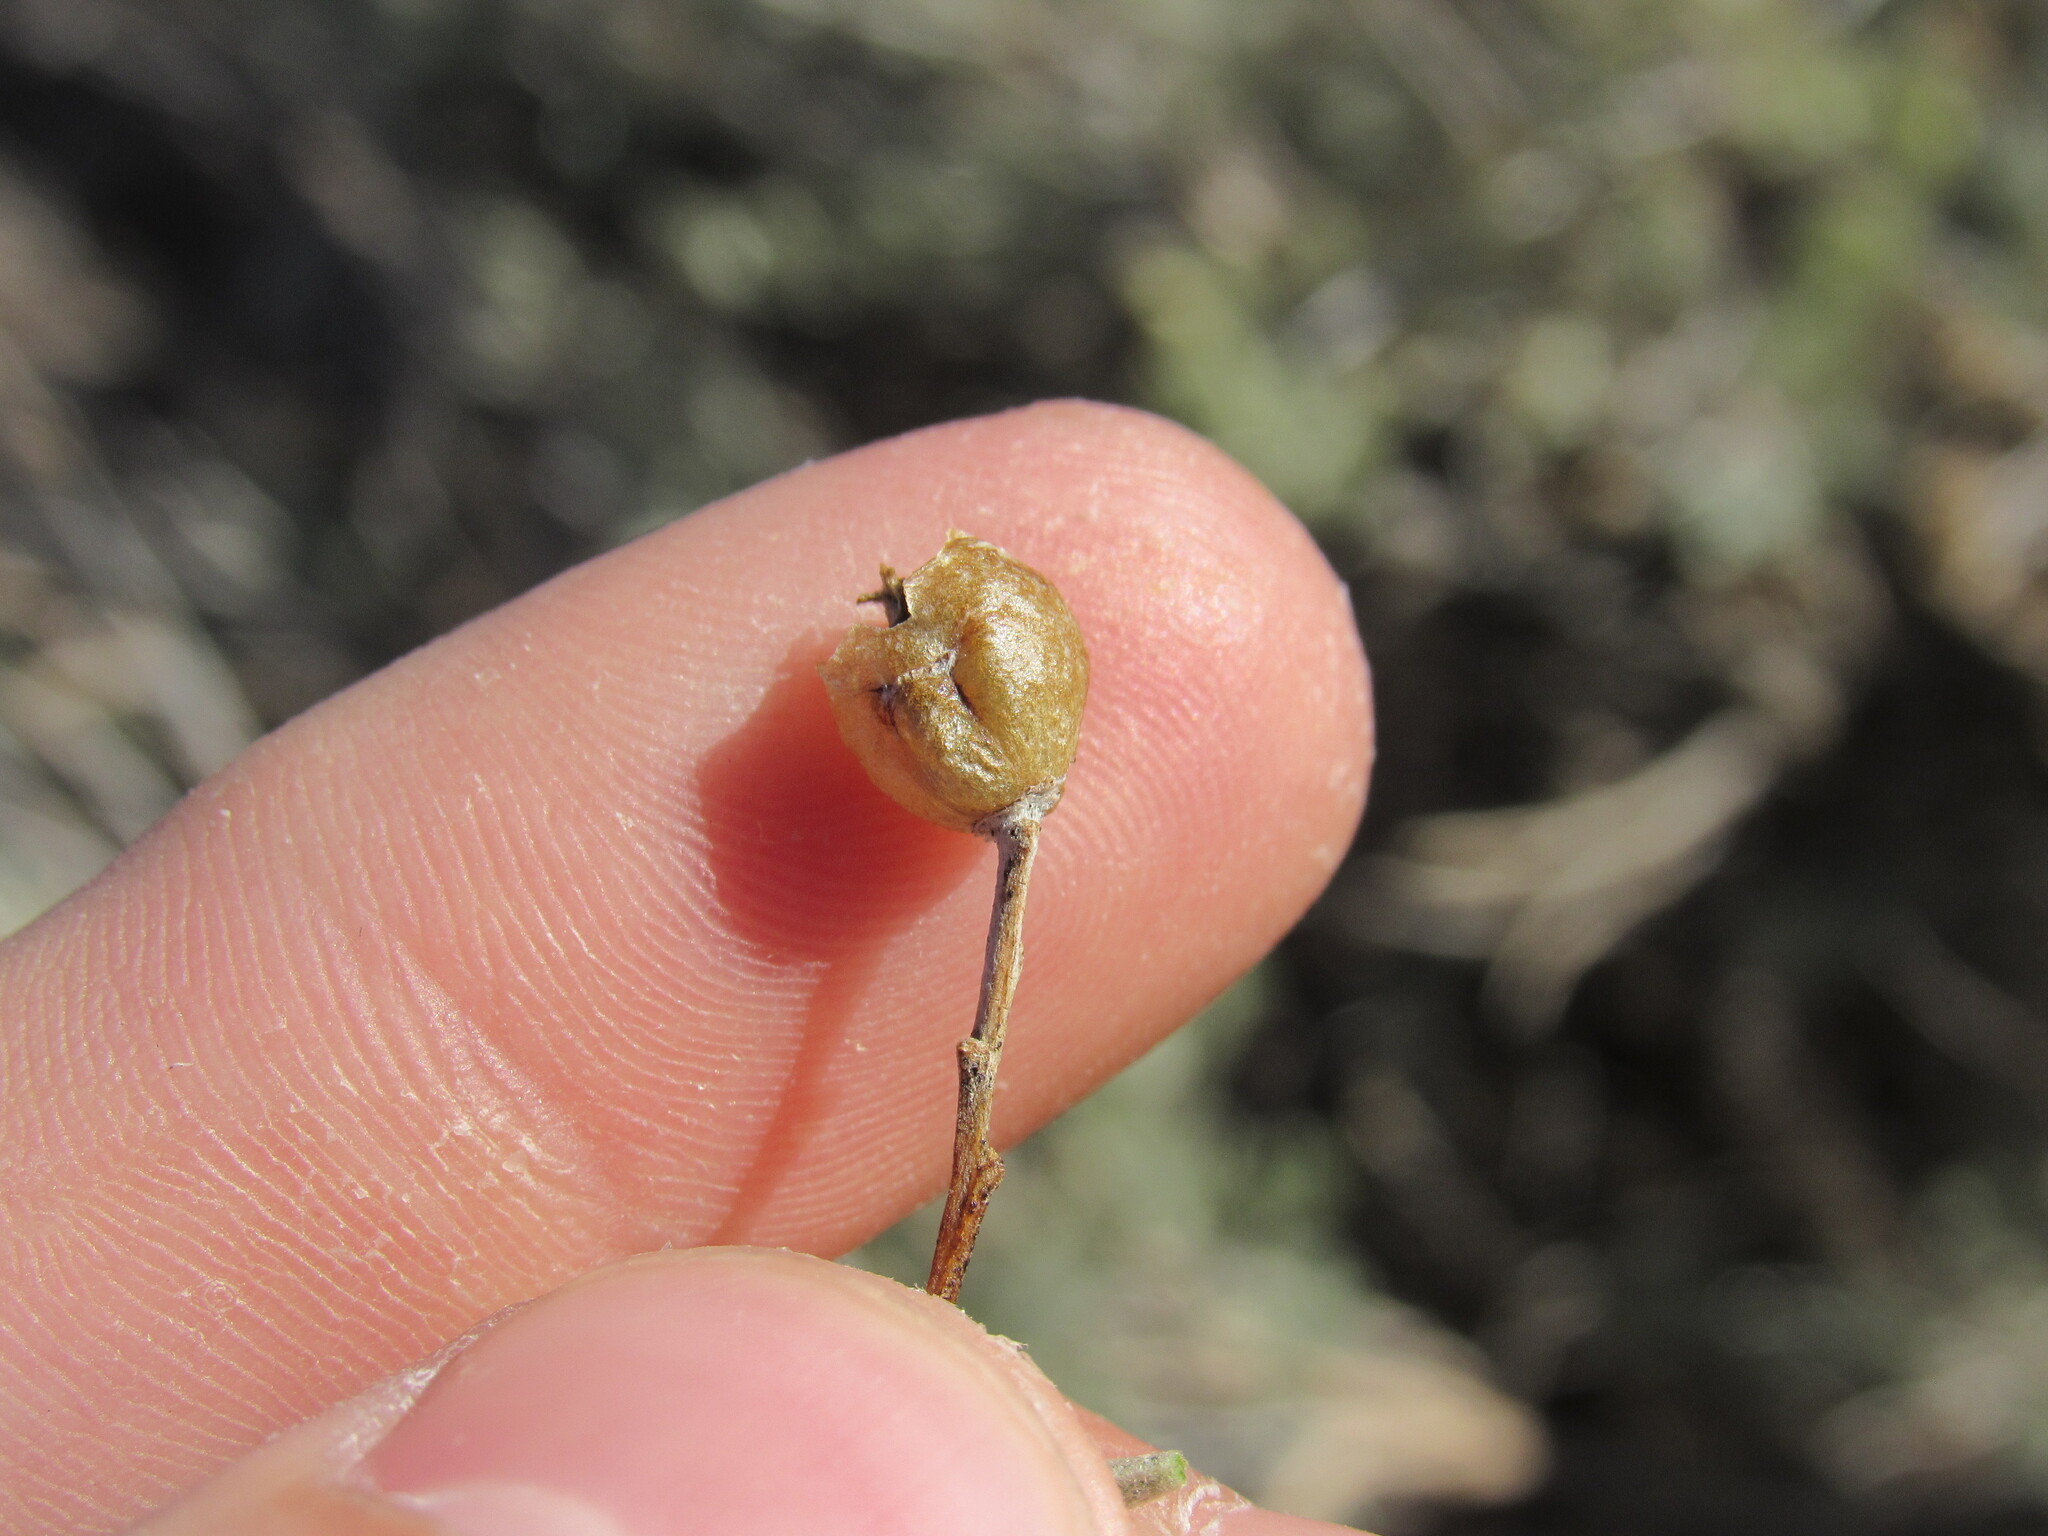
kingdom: Animalia
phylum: Arthropoda
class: Insecta
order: Diptera
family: Cecidomyiidae
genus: Rhopalomyia
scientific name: Rhopalomyia obovata
